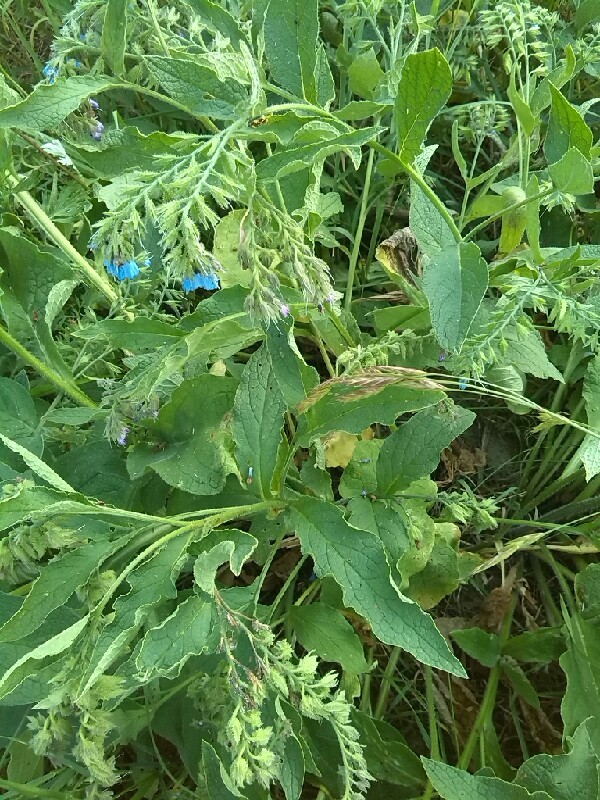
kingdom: Plantae
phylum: Tracheophyta
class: Magnoliopsida
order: Boraginales
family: Boraginaceae
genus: Symphytum
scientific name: Symphytum caucasicum
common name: Caucasian comfrey
